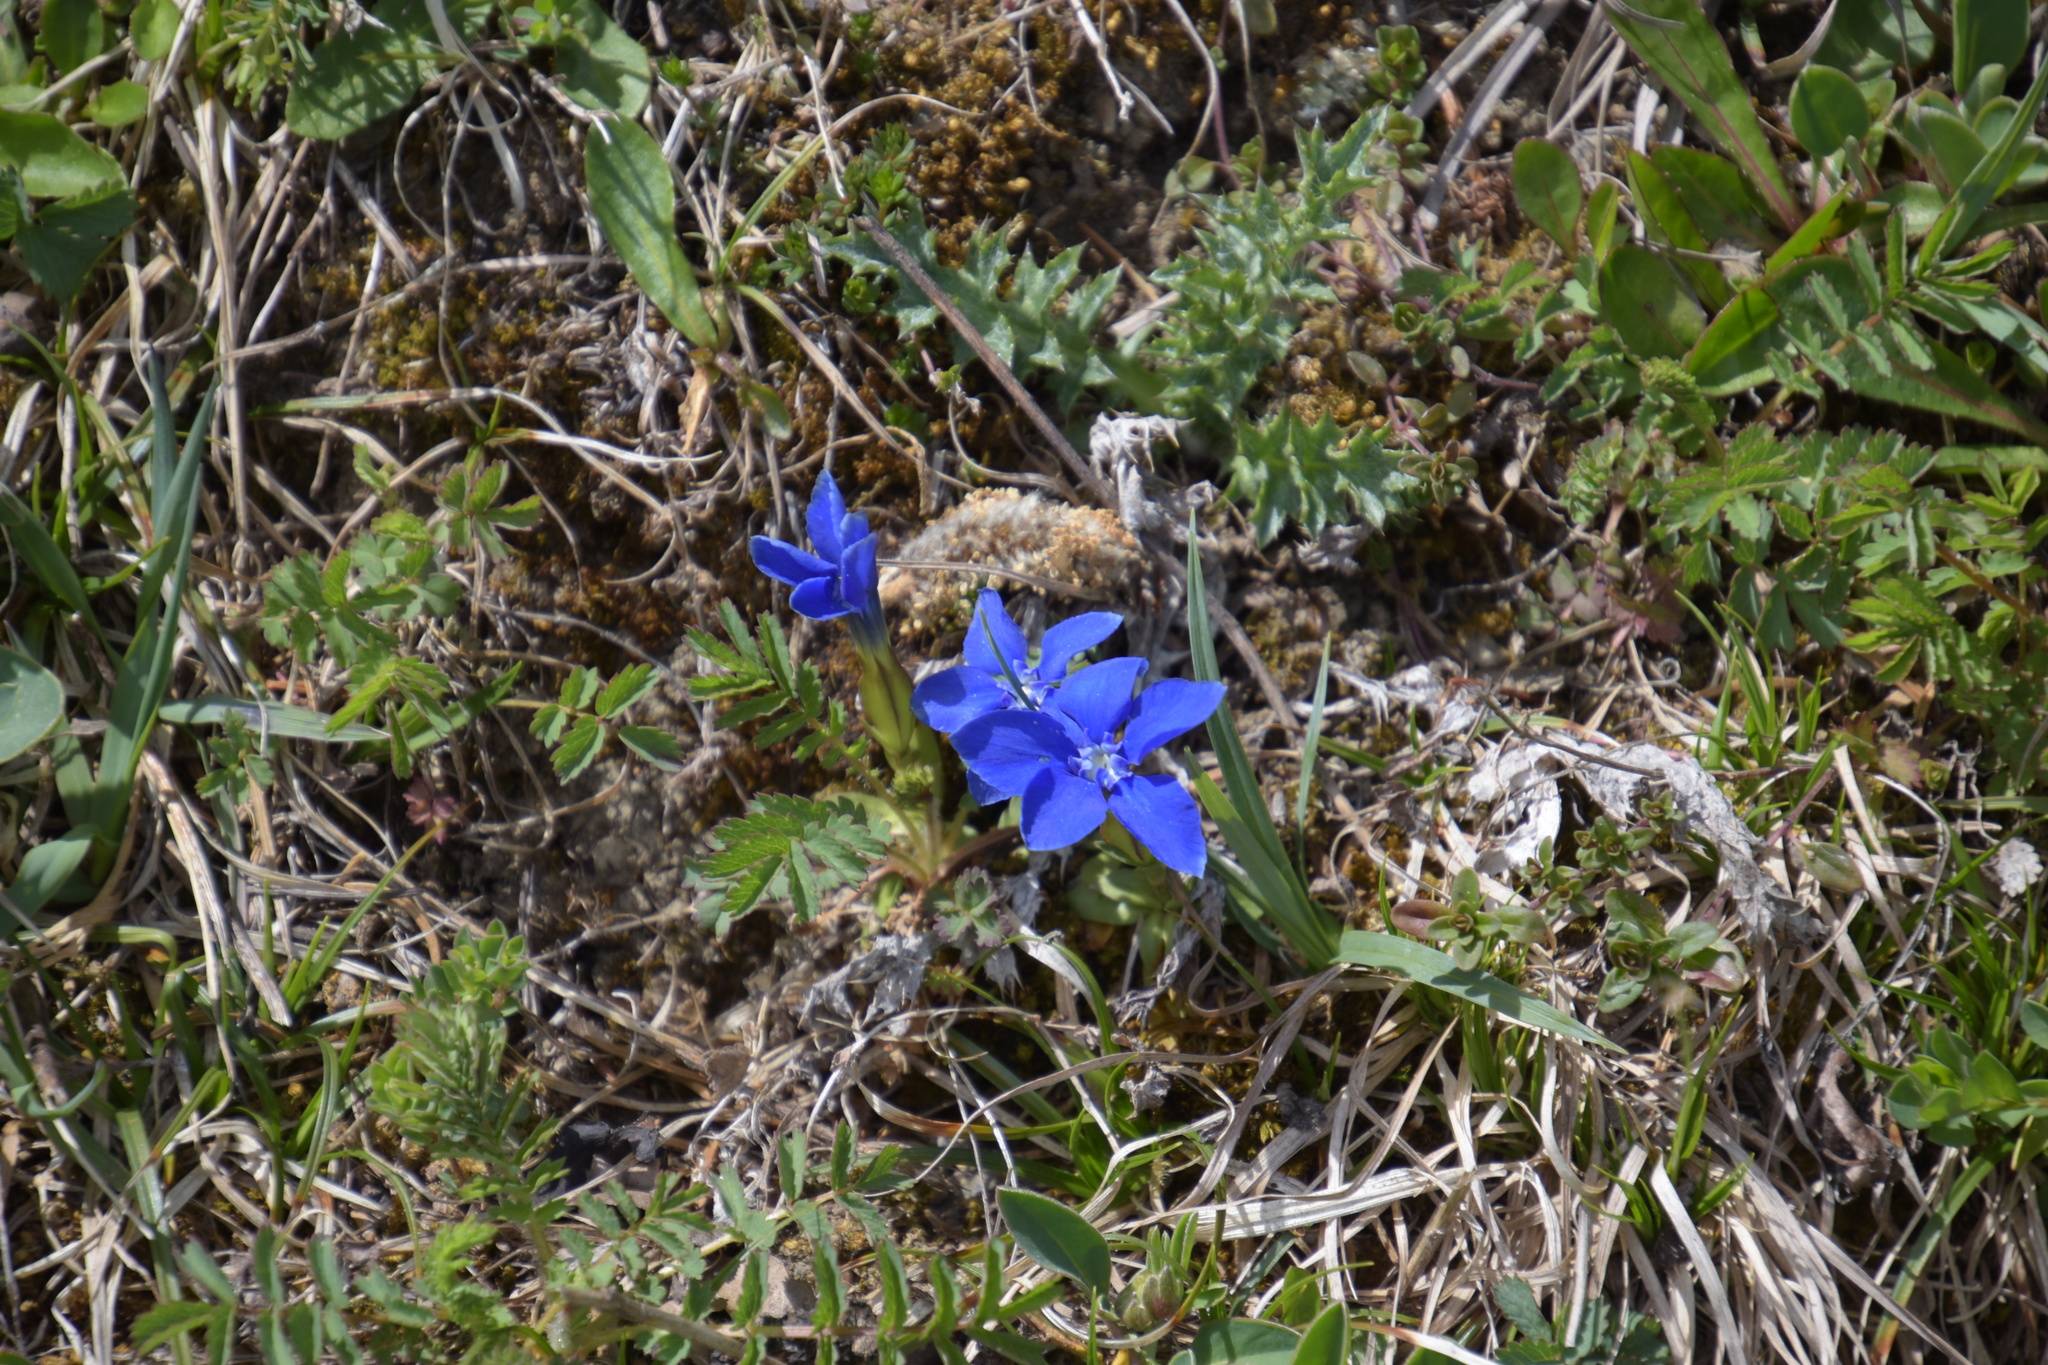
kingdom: Plantae
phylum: Tracheophyta
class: Magnoliopsida
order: Gentianales
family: Gentianaceae
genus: Gentiana
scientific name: Gentiana verna
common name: Spring gentian
